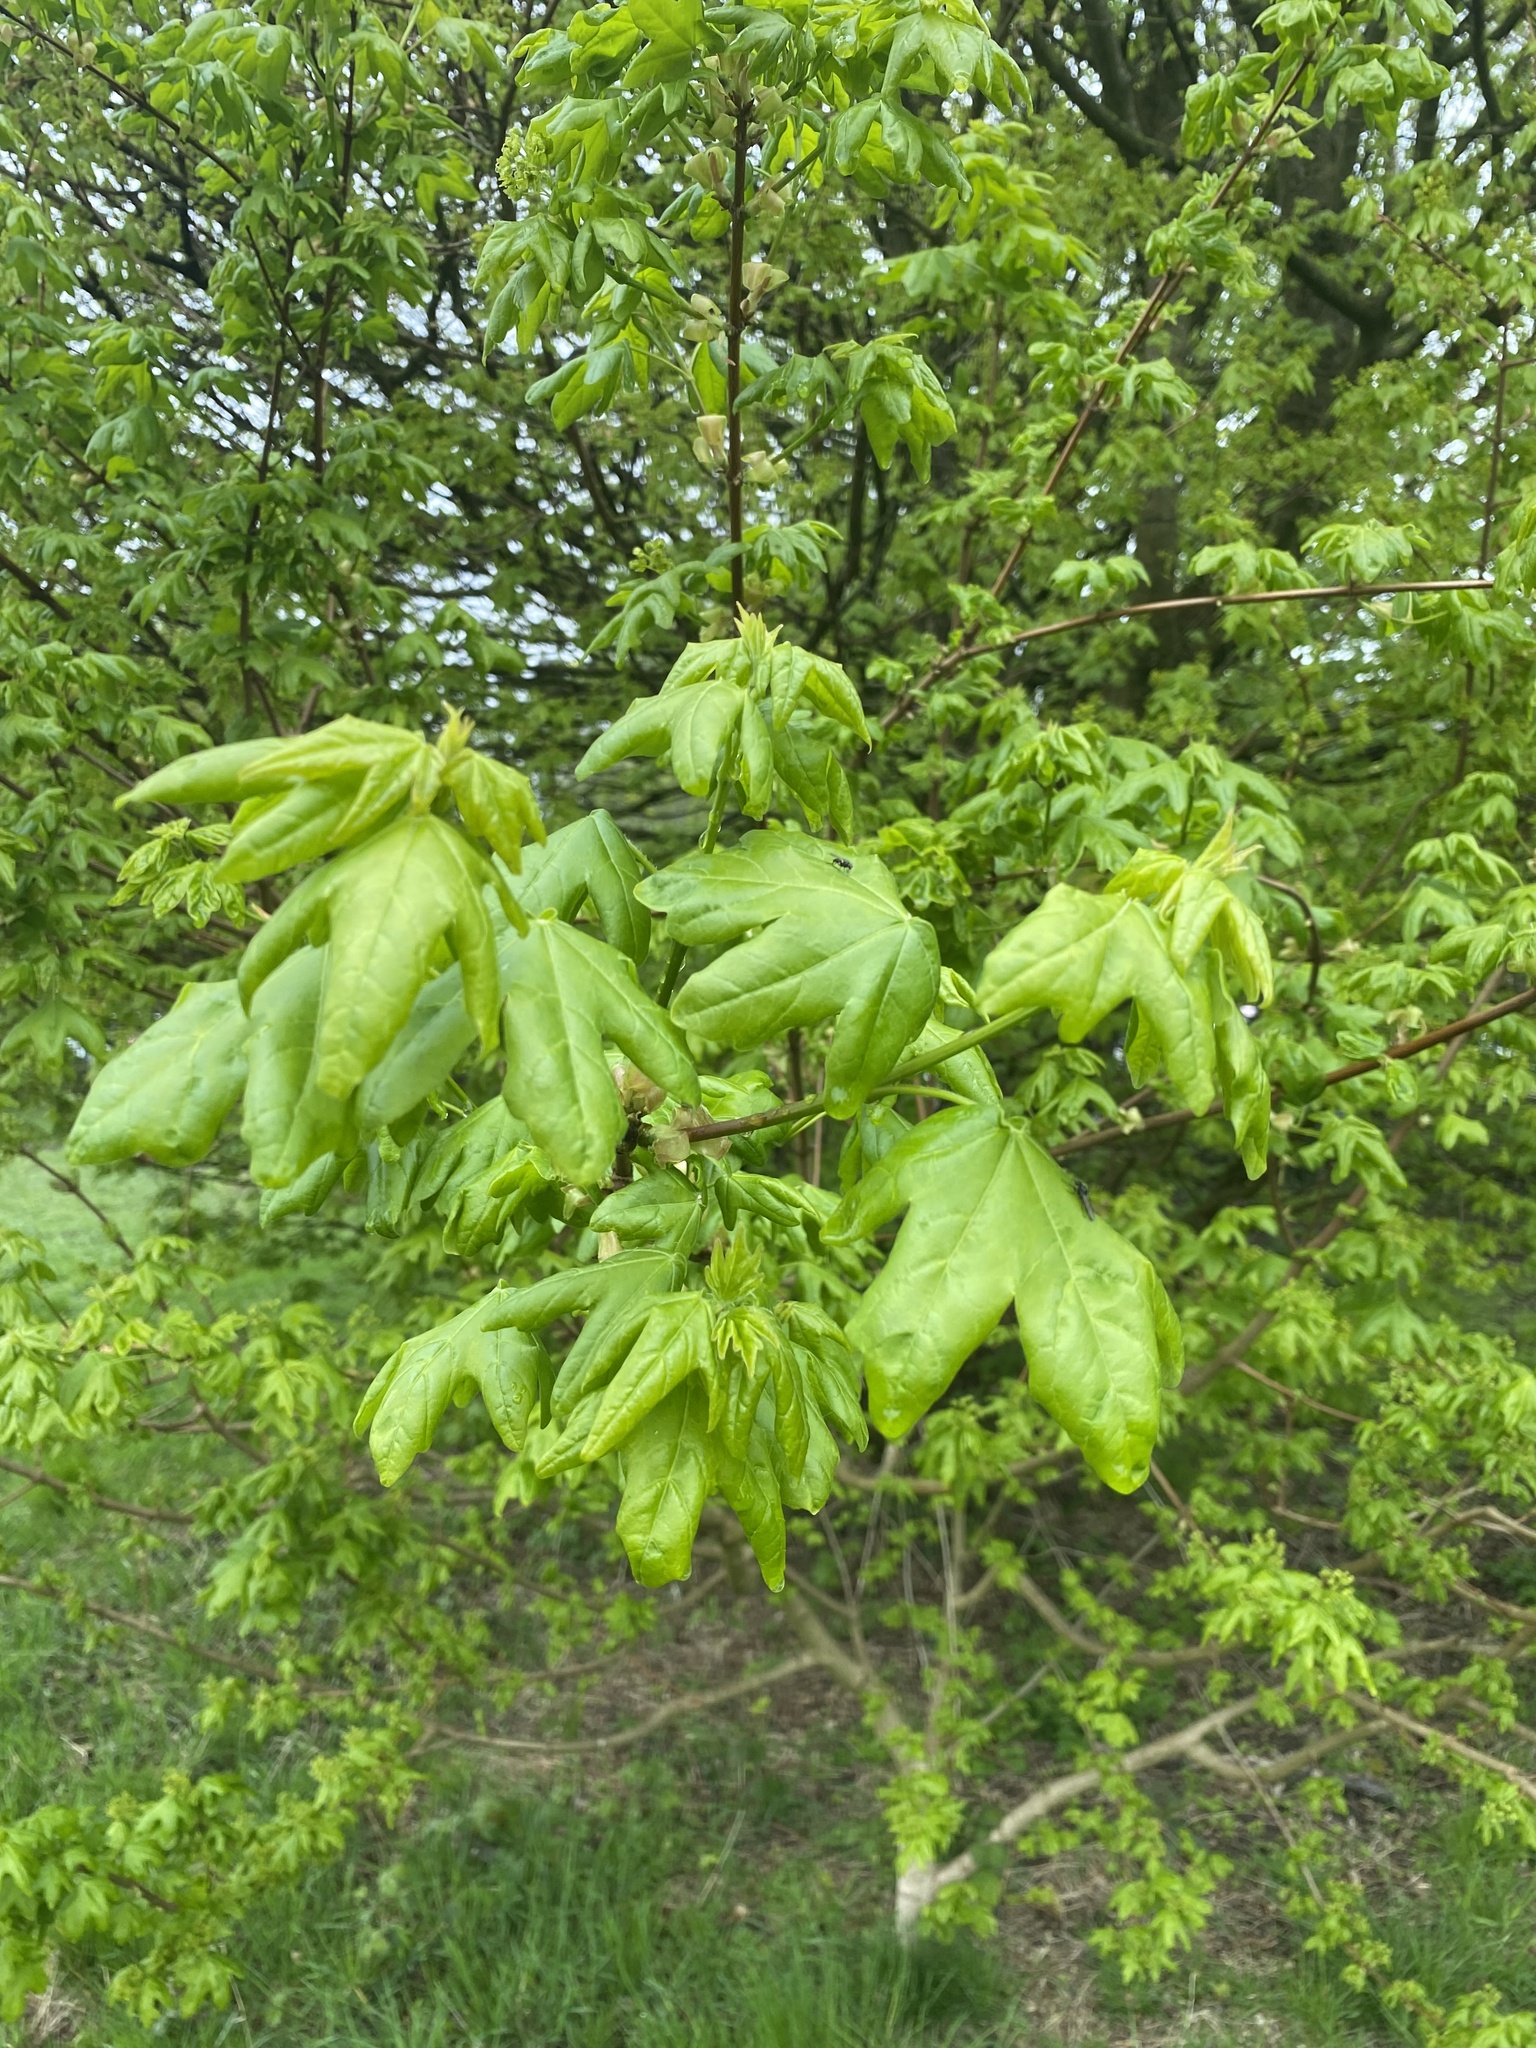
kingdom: Plantae
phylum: Tracheophyta
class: Magnoliopsida
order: Sapindales
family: Sapindaceae
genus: Acer
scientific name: Acer campestre
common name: Field maple
